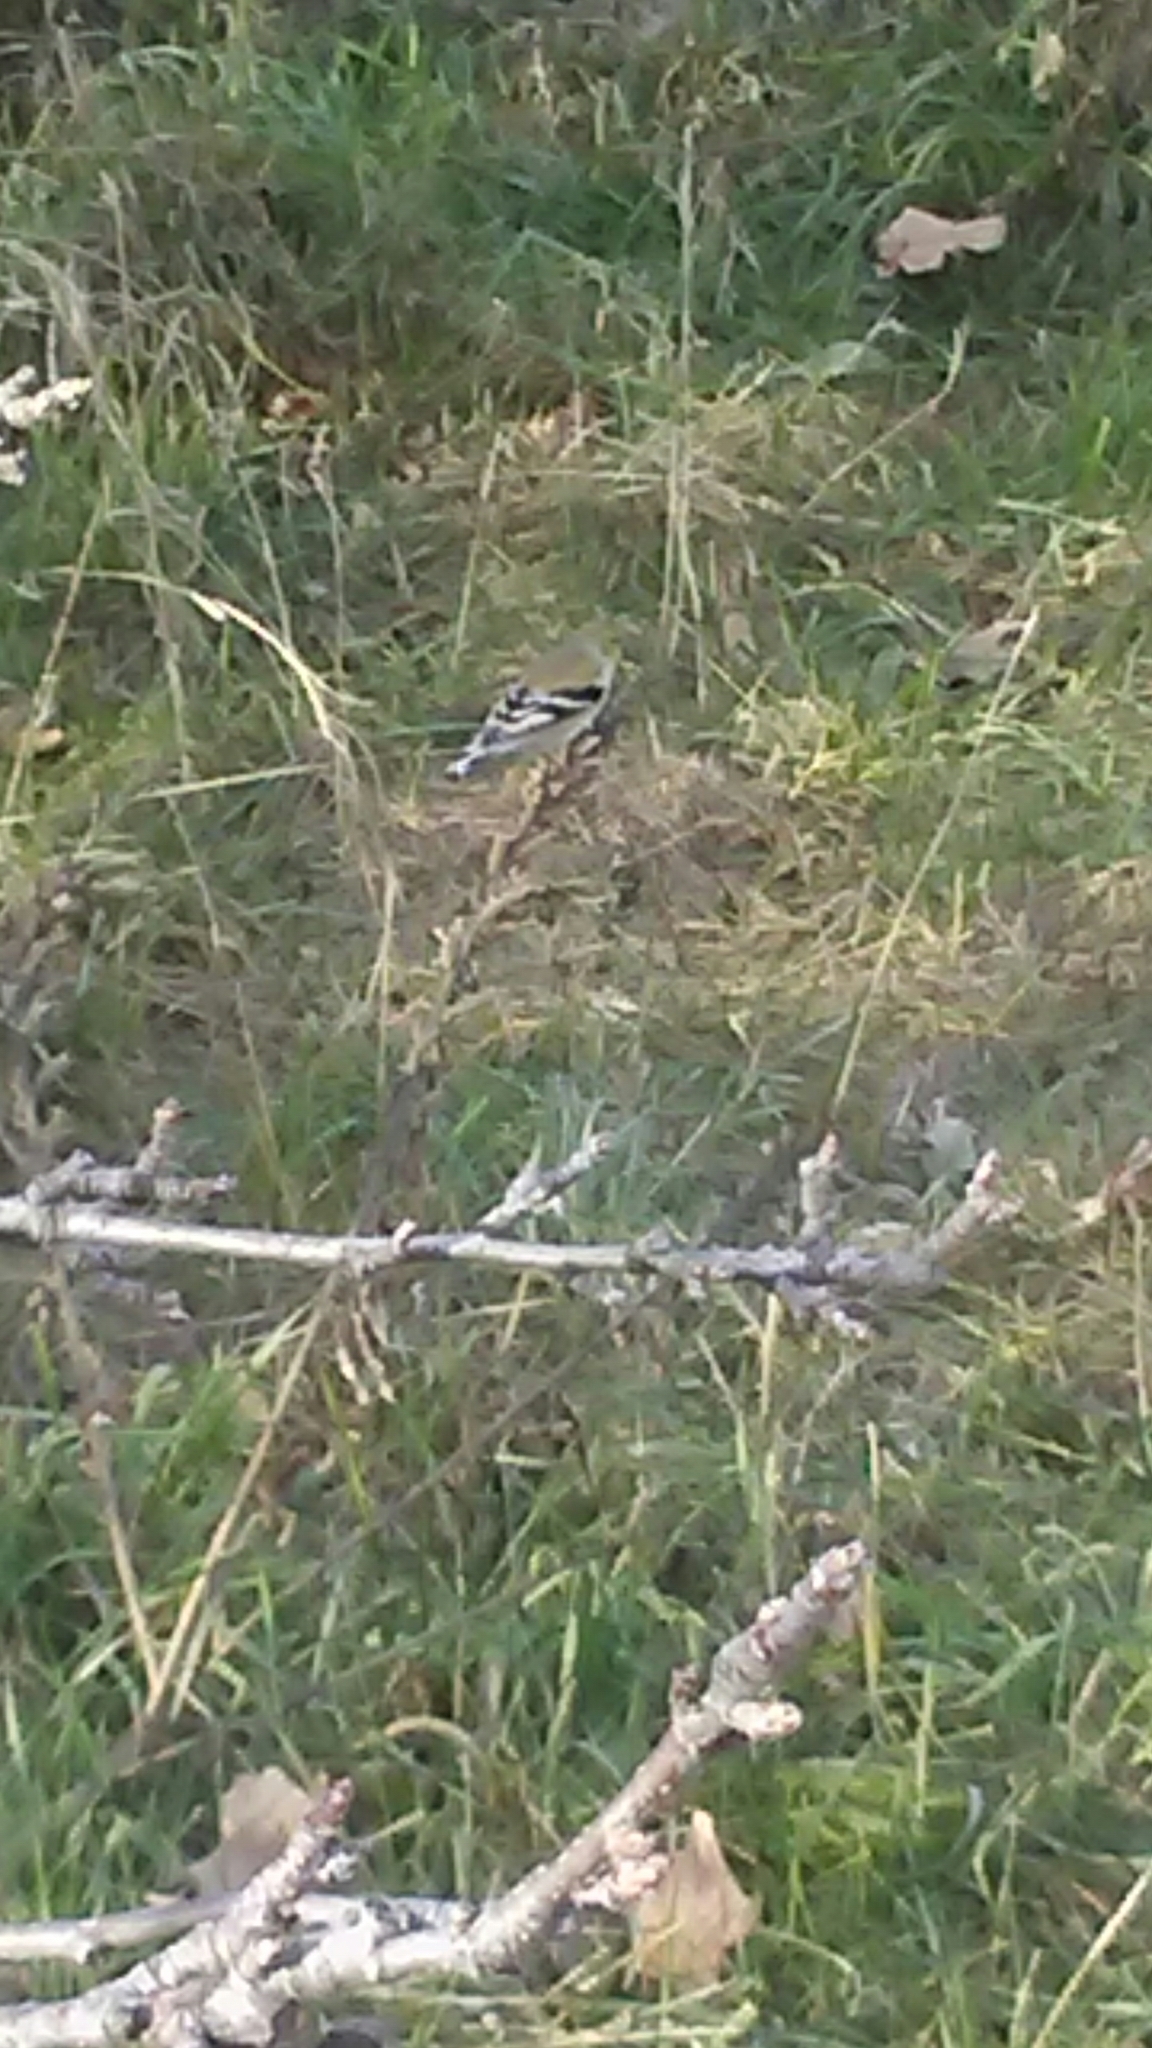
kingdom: Animalia
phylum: Chordata
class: Aves
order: Passeriformes
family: Fringillidae
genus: Spinus
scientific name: Spinus tristis
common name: American goldfinch
